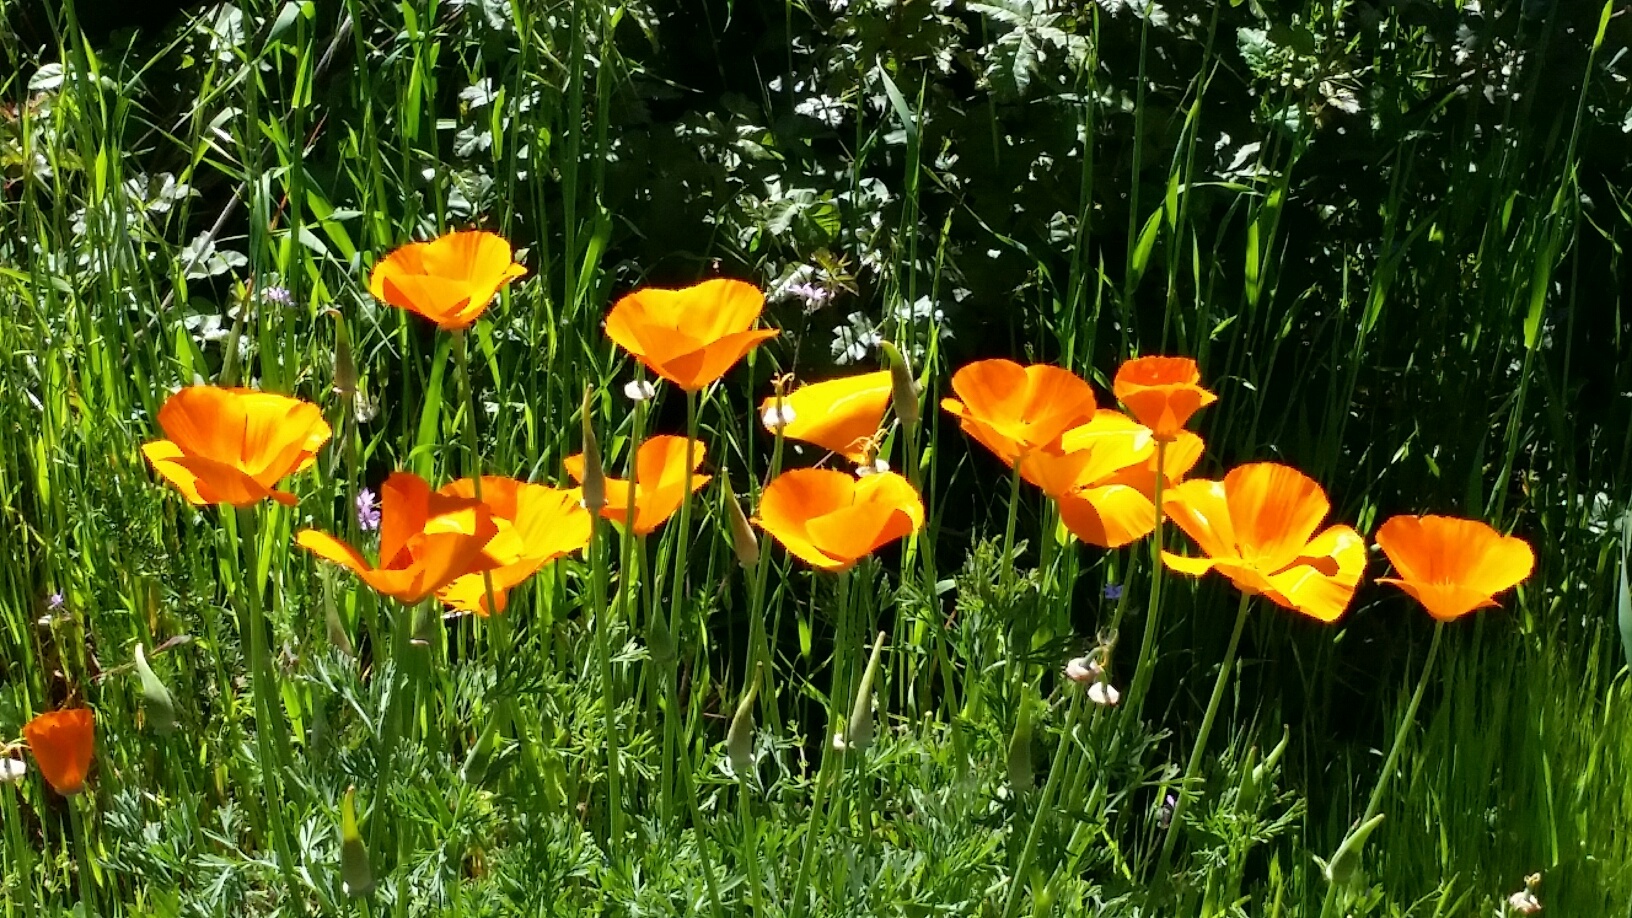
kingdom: Plantae
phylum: Tracheophyta
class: Magnoliopsida
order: Ranunculales
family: Papaveraceae
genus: Eschscholzia
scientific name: Eschscholzia californica
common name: California poppy
